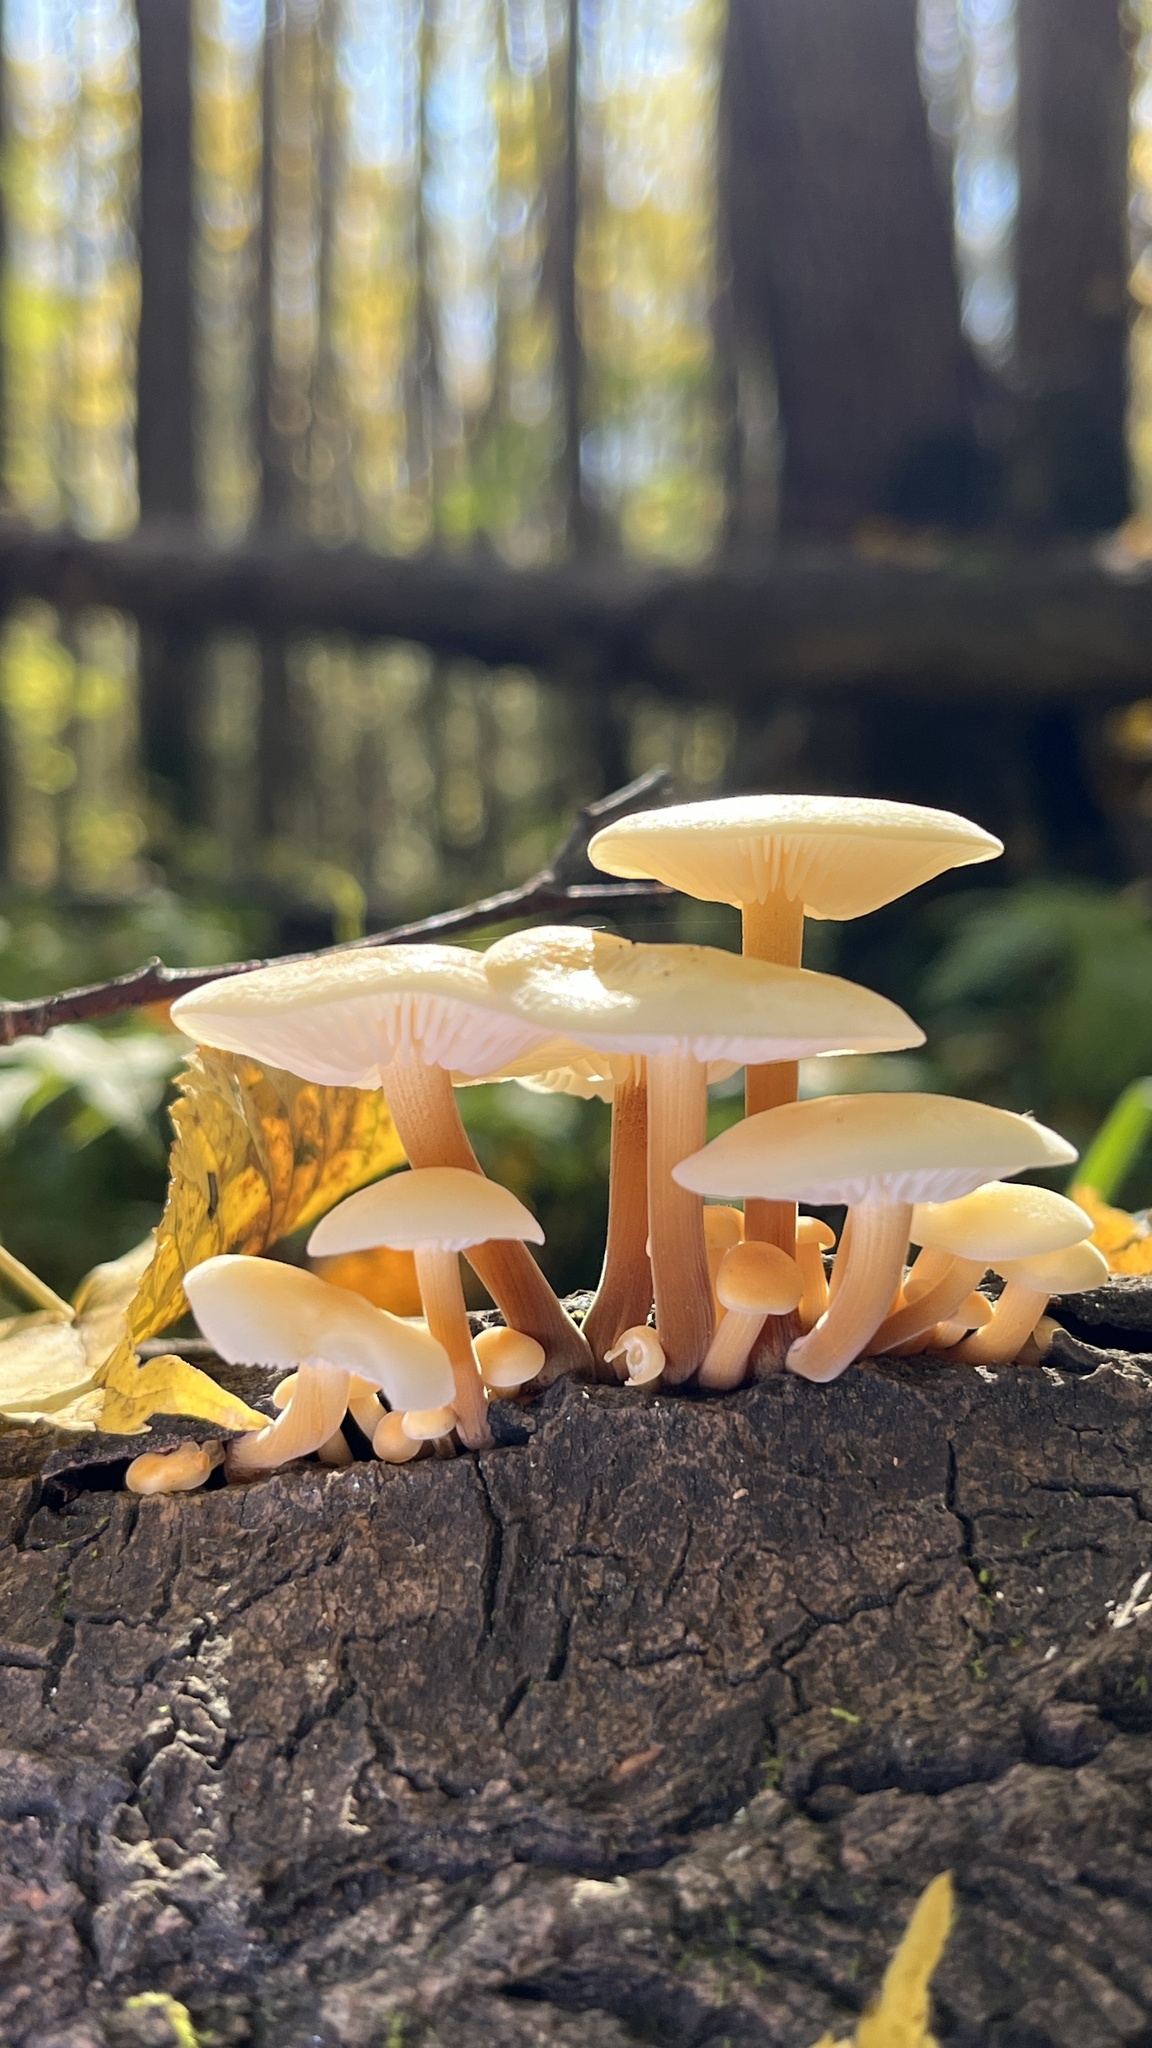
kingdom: Fungi
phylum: Basidiomycota
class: Agaricomycetes
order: Agaricales
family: Physalacriaceae
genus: Flammulina
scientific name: Flammulina
